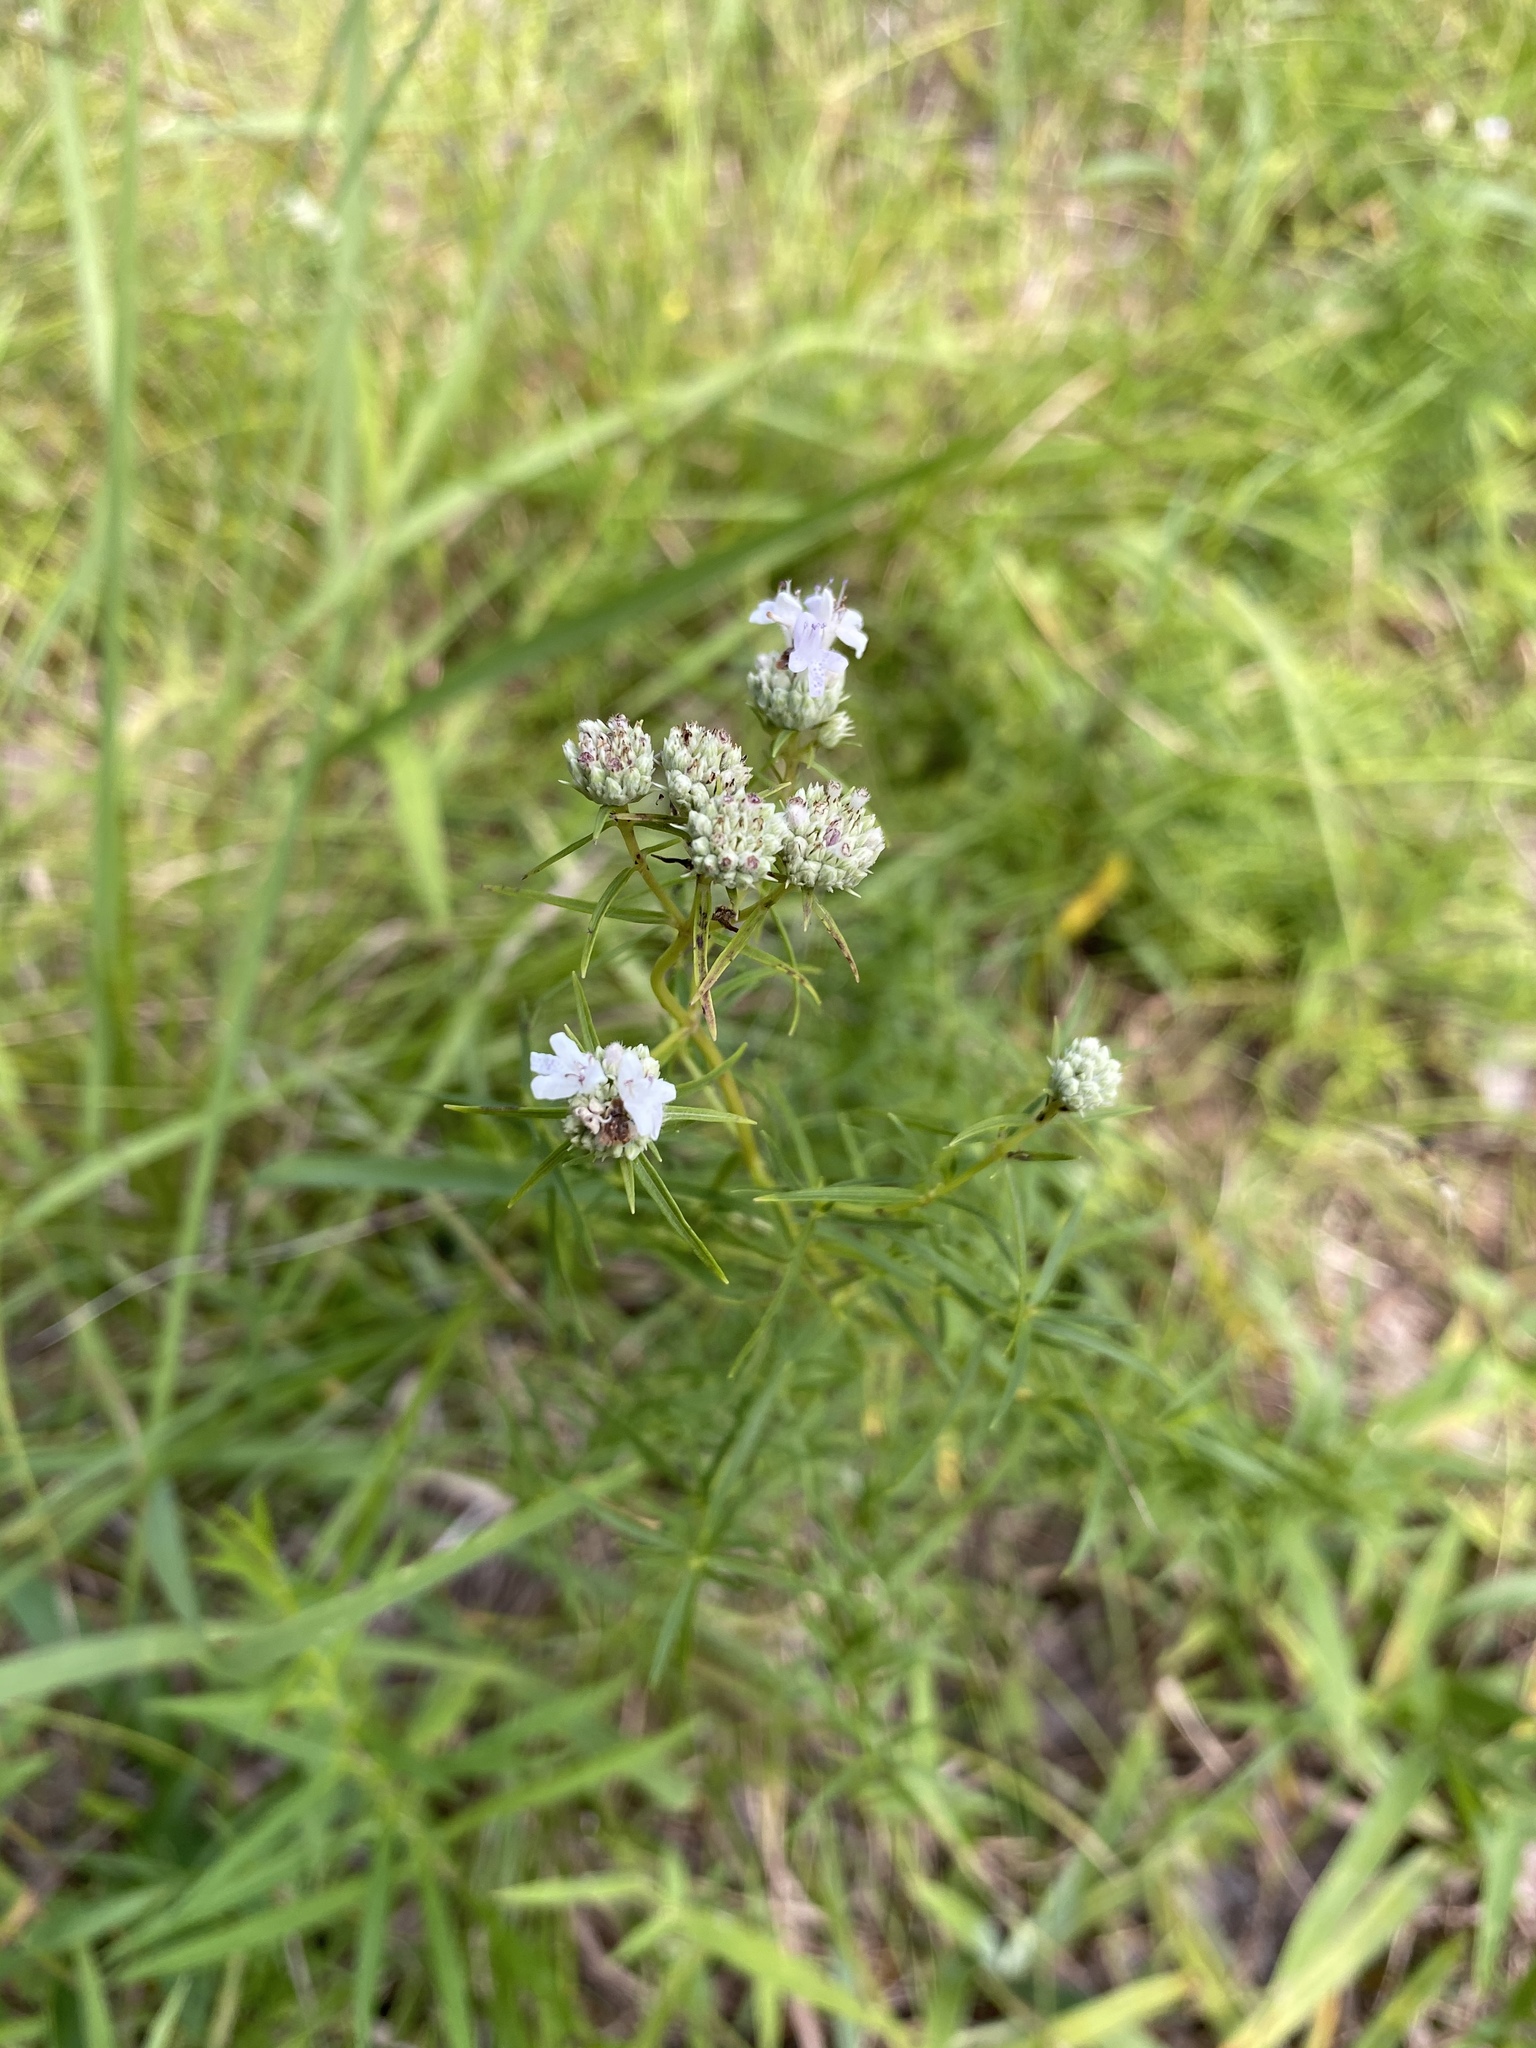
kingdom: Plantae
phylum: Tracheophyta
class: Magnoliopsida
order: Lamiales
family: Lamiaceae
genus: Pycnanthemum
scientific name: Pycnanthemum tenuifolium
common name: Narrow-leaf mountain-mint
